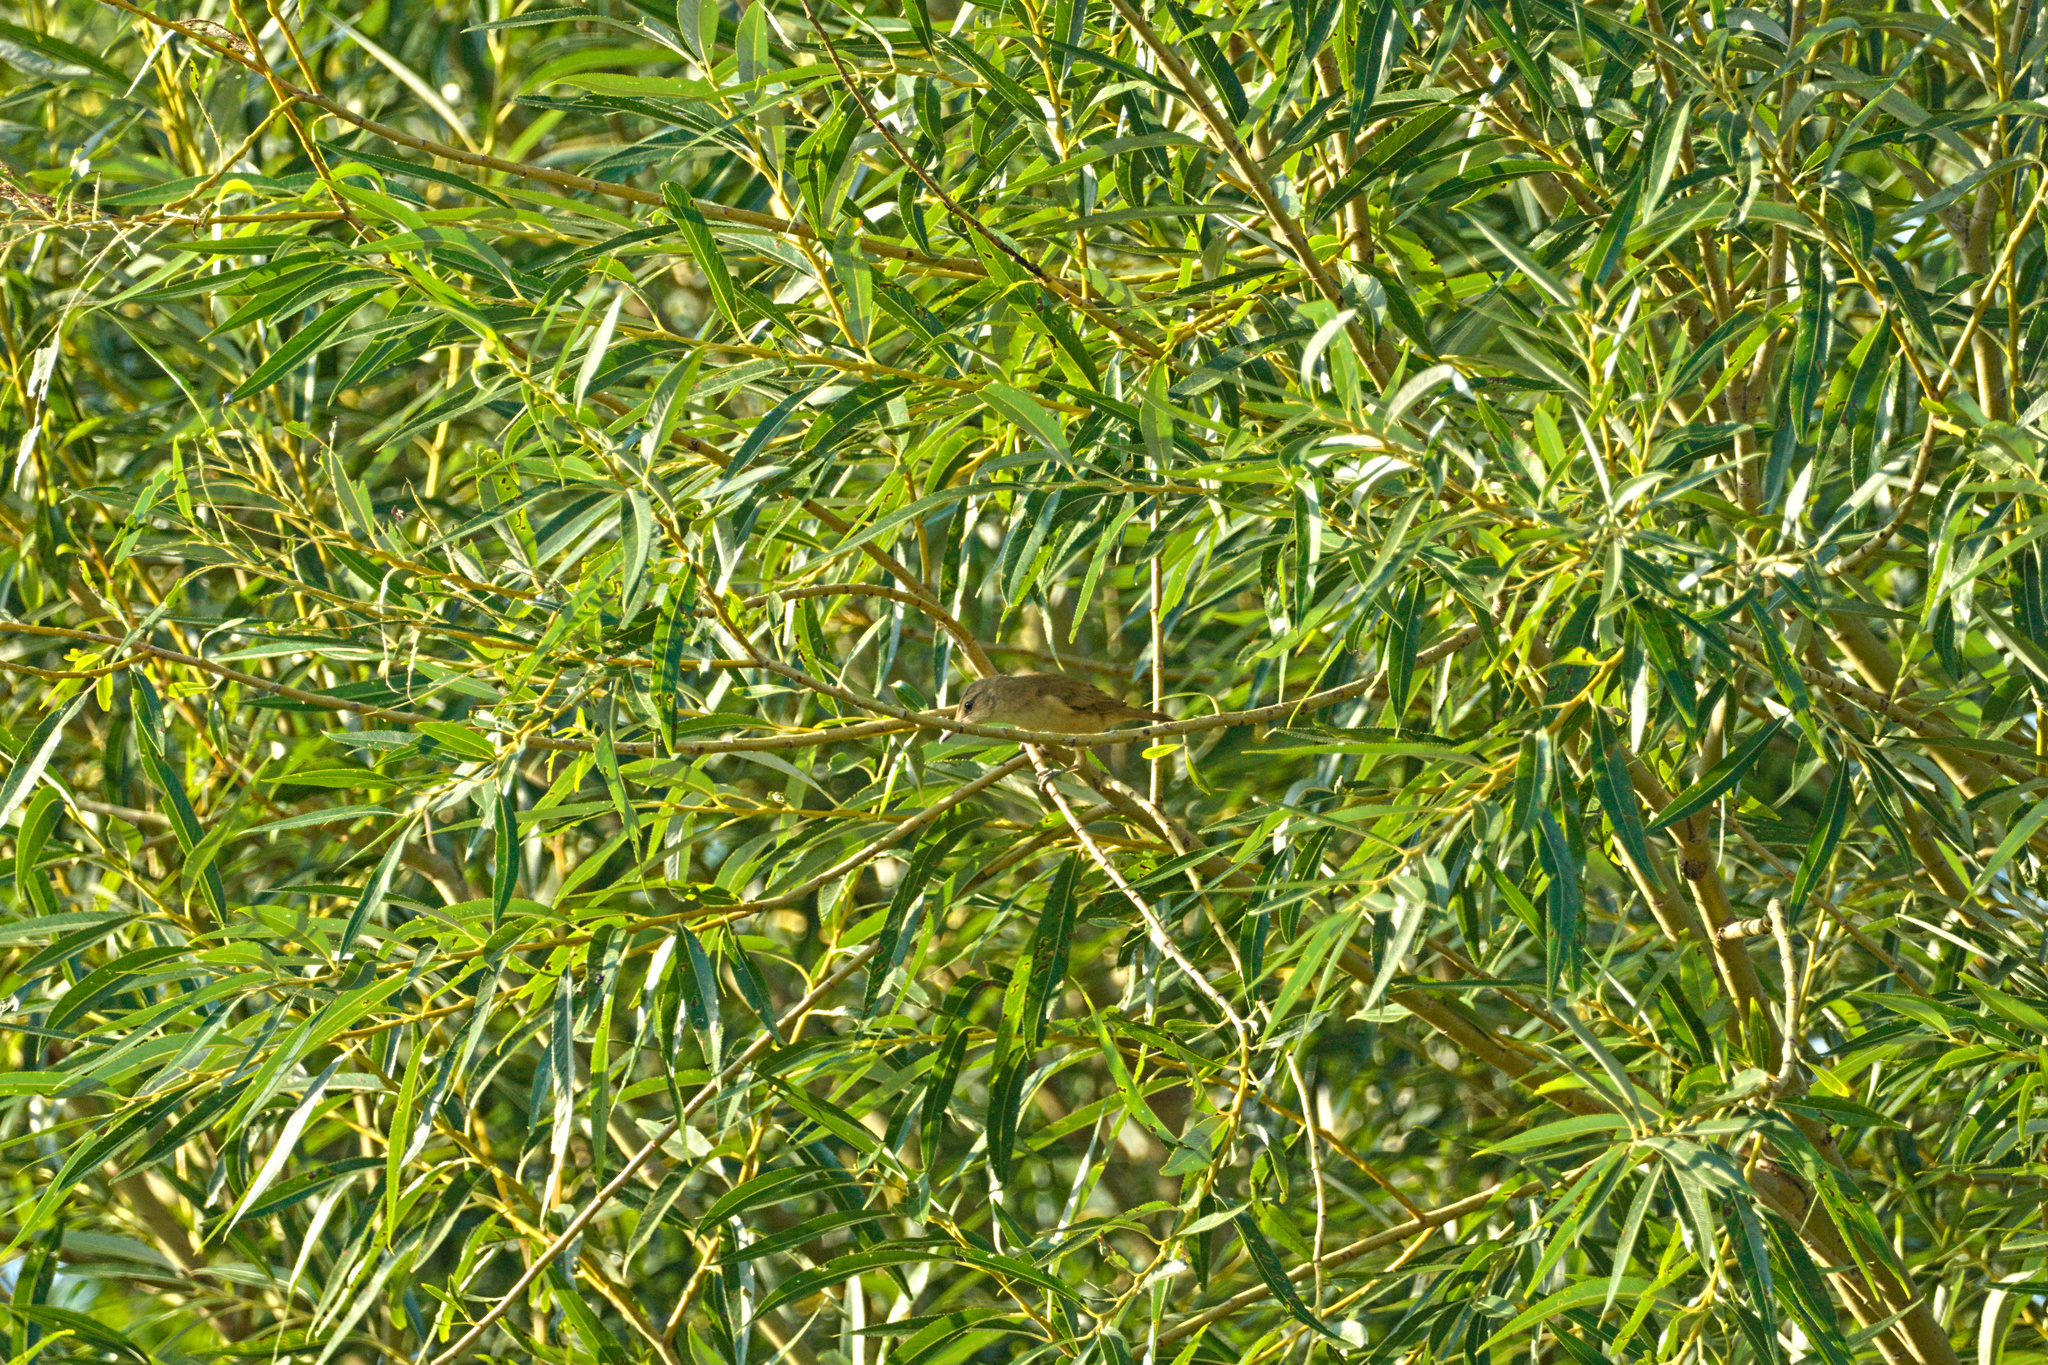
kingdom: Animalia
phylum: Chordata
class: Aves
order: Passeriformes
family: Acrocephalidae
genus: Acrocephalus
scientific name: Acrocephalus arundinaceus
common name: Great reed warbler
